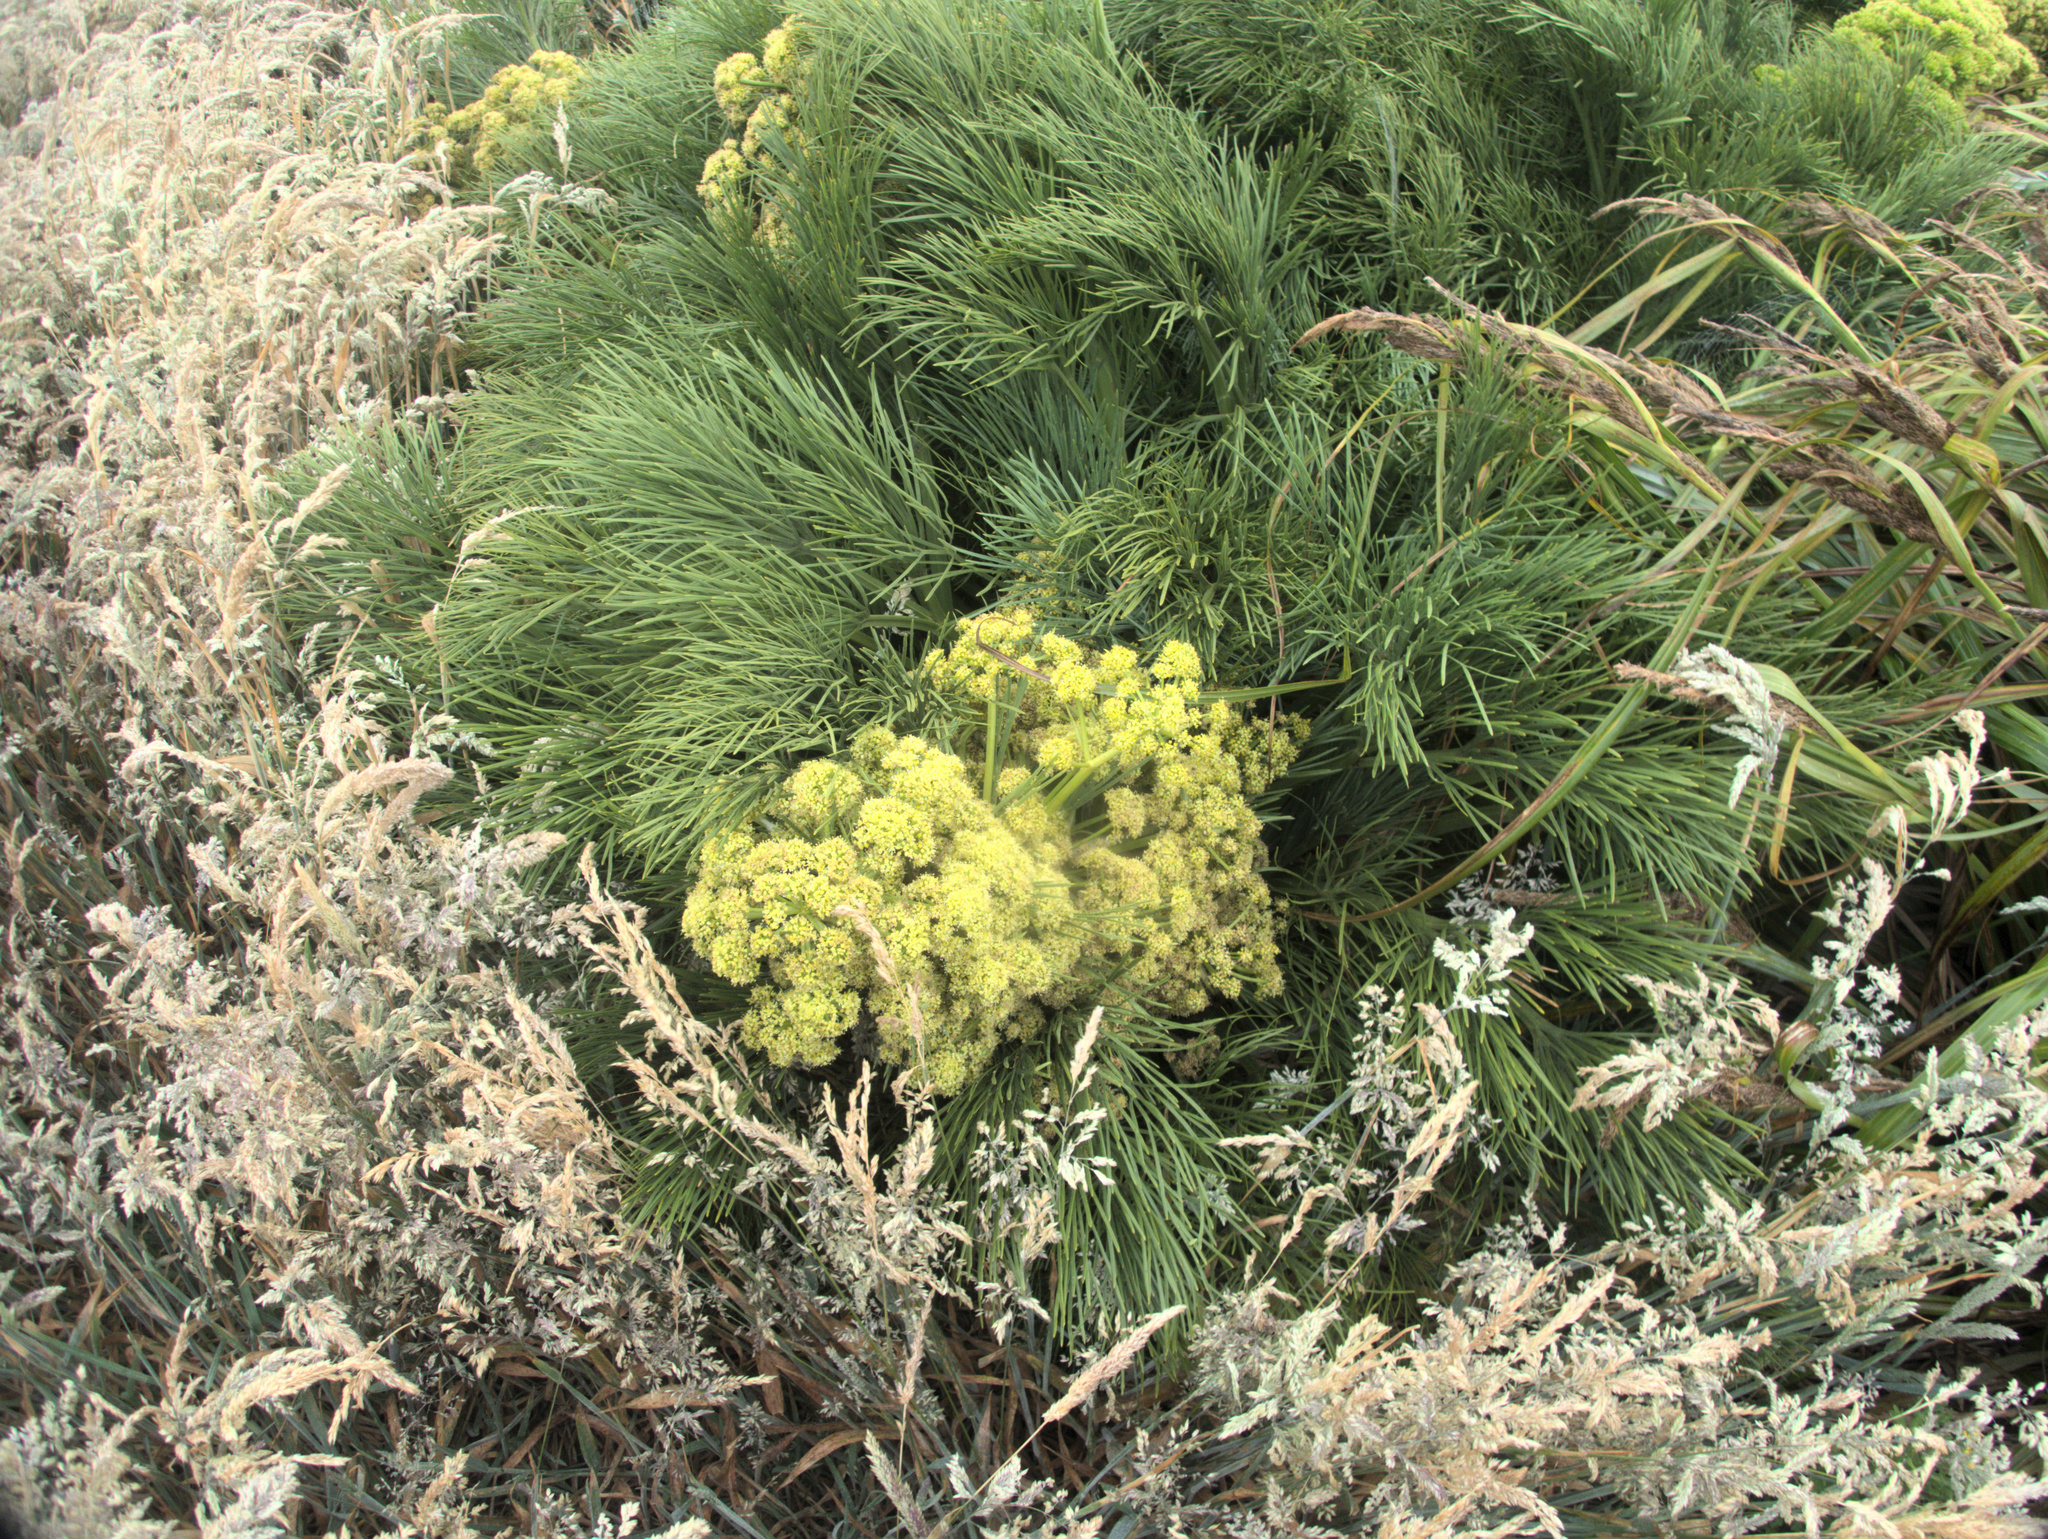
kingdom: Plantae
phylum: Tracheophyta
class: Magnoliopsida
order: Apiales
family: Apiaceae
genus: Aciphylla
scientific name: Aciphylla dieffenbachii
